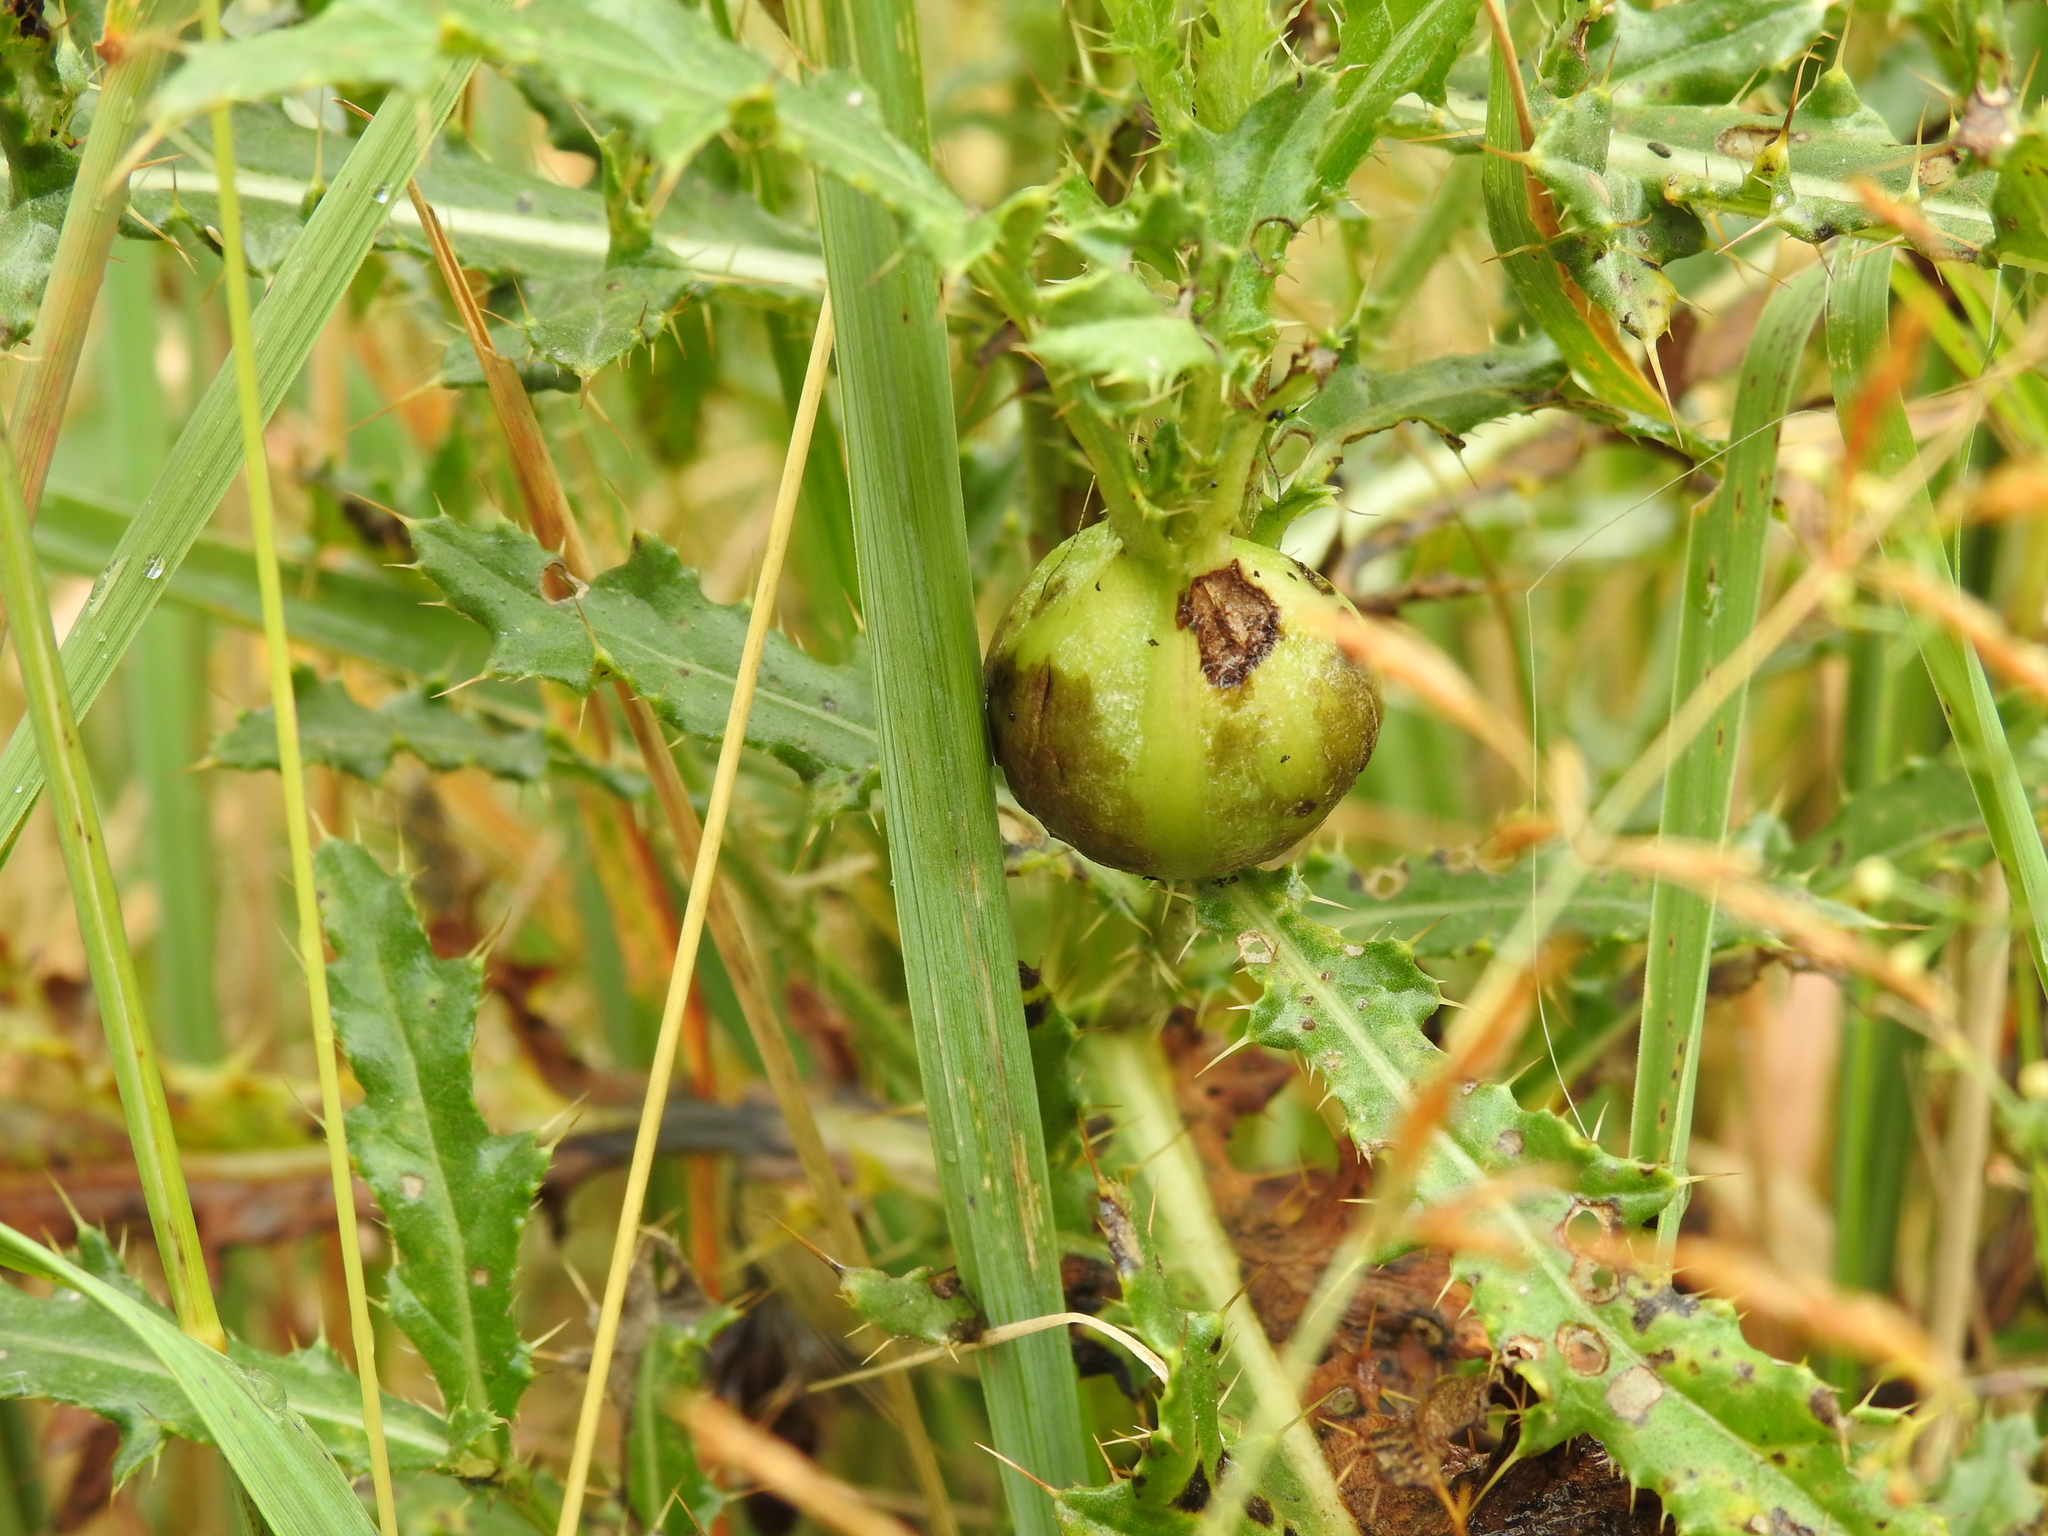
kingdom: Animalia
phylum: Arthropoda
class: Insecta
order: Diptera
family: Tephritidae
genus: Urophora
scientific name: Urophora cardui
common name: Fruit fly
